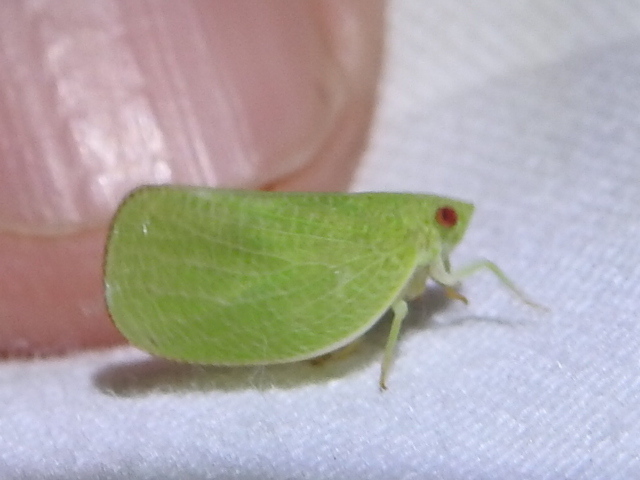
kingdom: Animalia
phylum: Arthropoda
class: Insecta
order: Hemiptera
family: Acanaloniidae
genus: Acanalonia
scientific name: Acanalonia conica
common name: Green cone-headed planthopper
